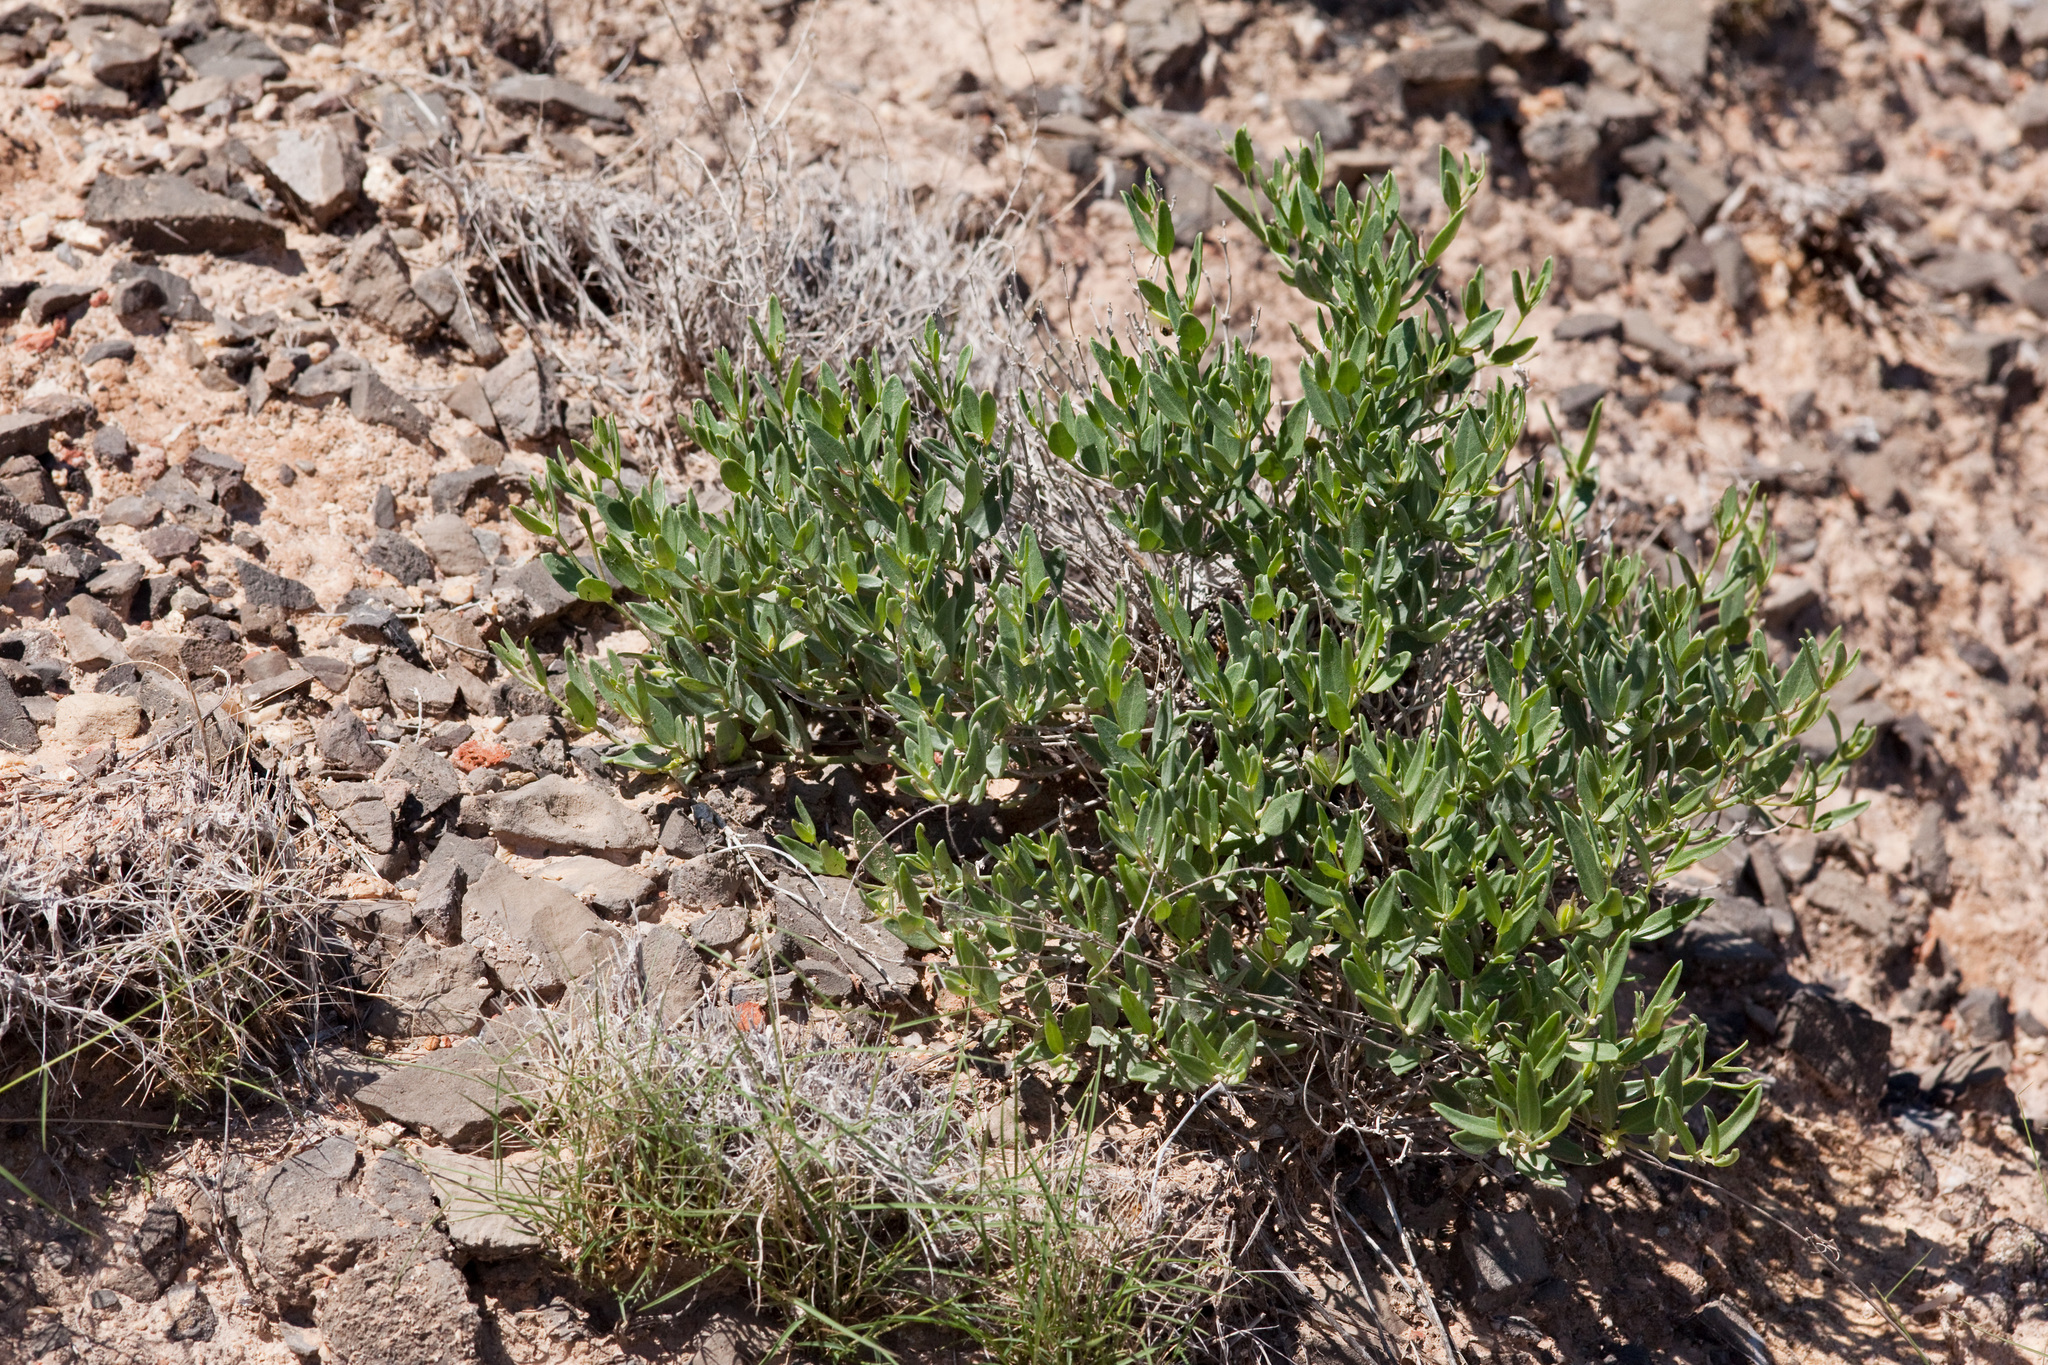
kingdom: Plantae
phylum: Tracheophyta
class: Magnoliopsida
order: Caryophyllales
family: Nyctaginaceae
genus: Acleisanthes
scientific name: Acleisanthes lanceolata
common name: Gypsum moonpod
